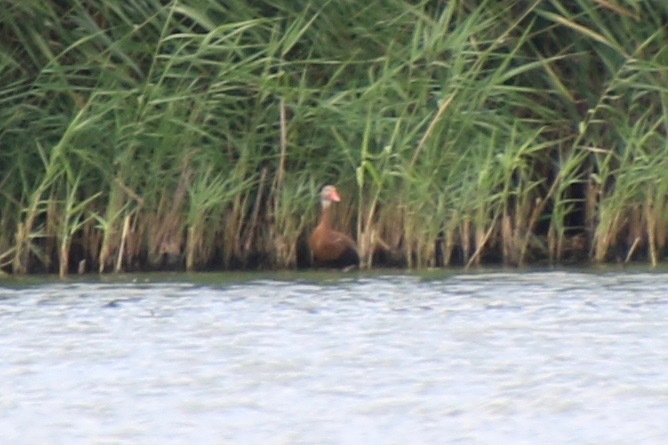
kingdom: Animalia
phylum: Chordata
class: Aves
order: Anseriformes
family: Anatidae
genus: Dendrocygna
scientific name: Dendrocygna autumnalis
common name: Black-bellied whistling duck
